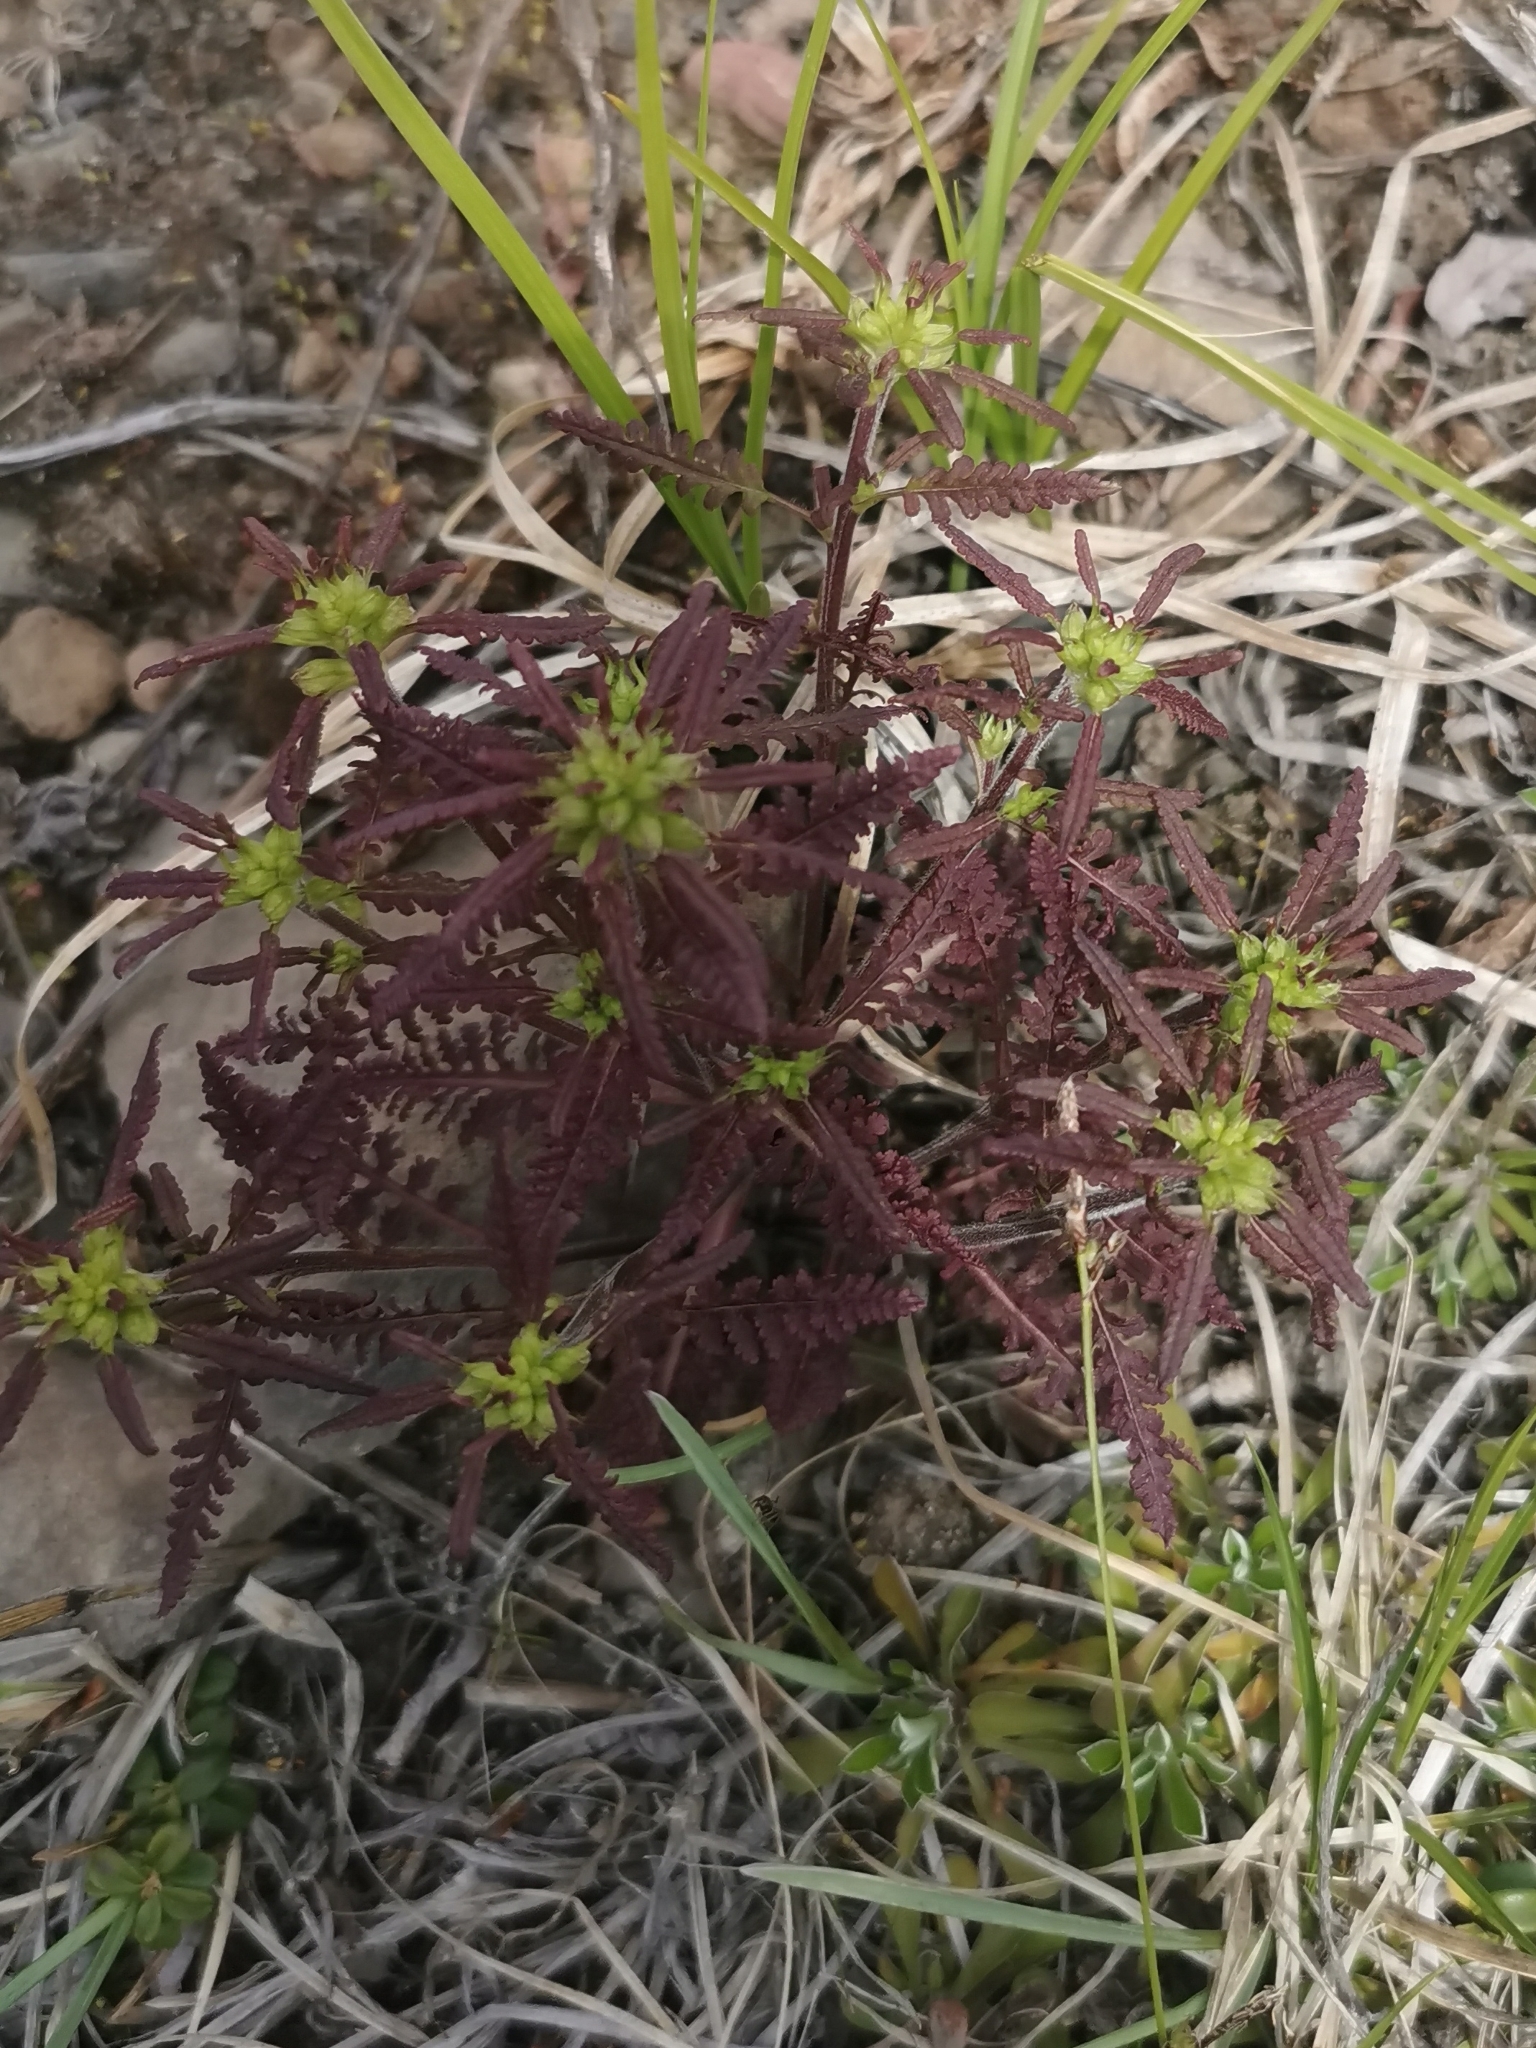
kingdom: Plantae
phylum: Tracheophyta
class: Magnoliopsida
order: Lamiales
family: Orobanchaceae
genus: Pedicularis
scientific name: Pedicularis labradorica
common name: Labrador lousewort
